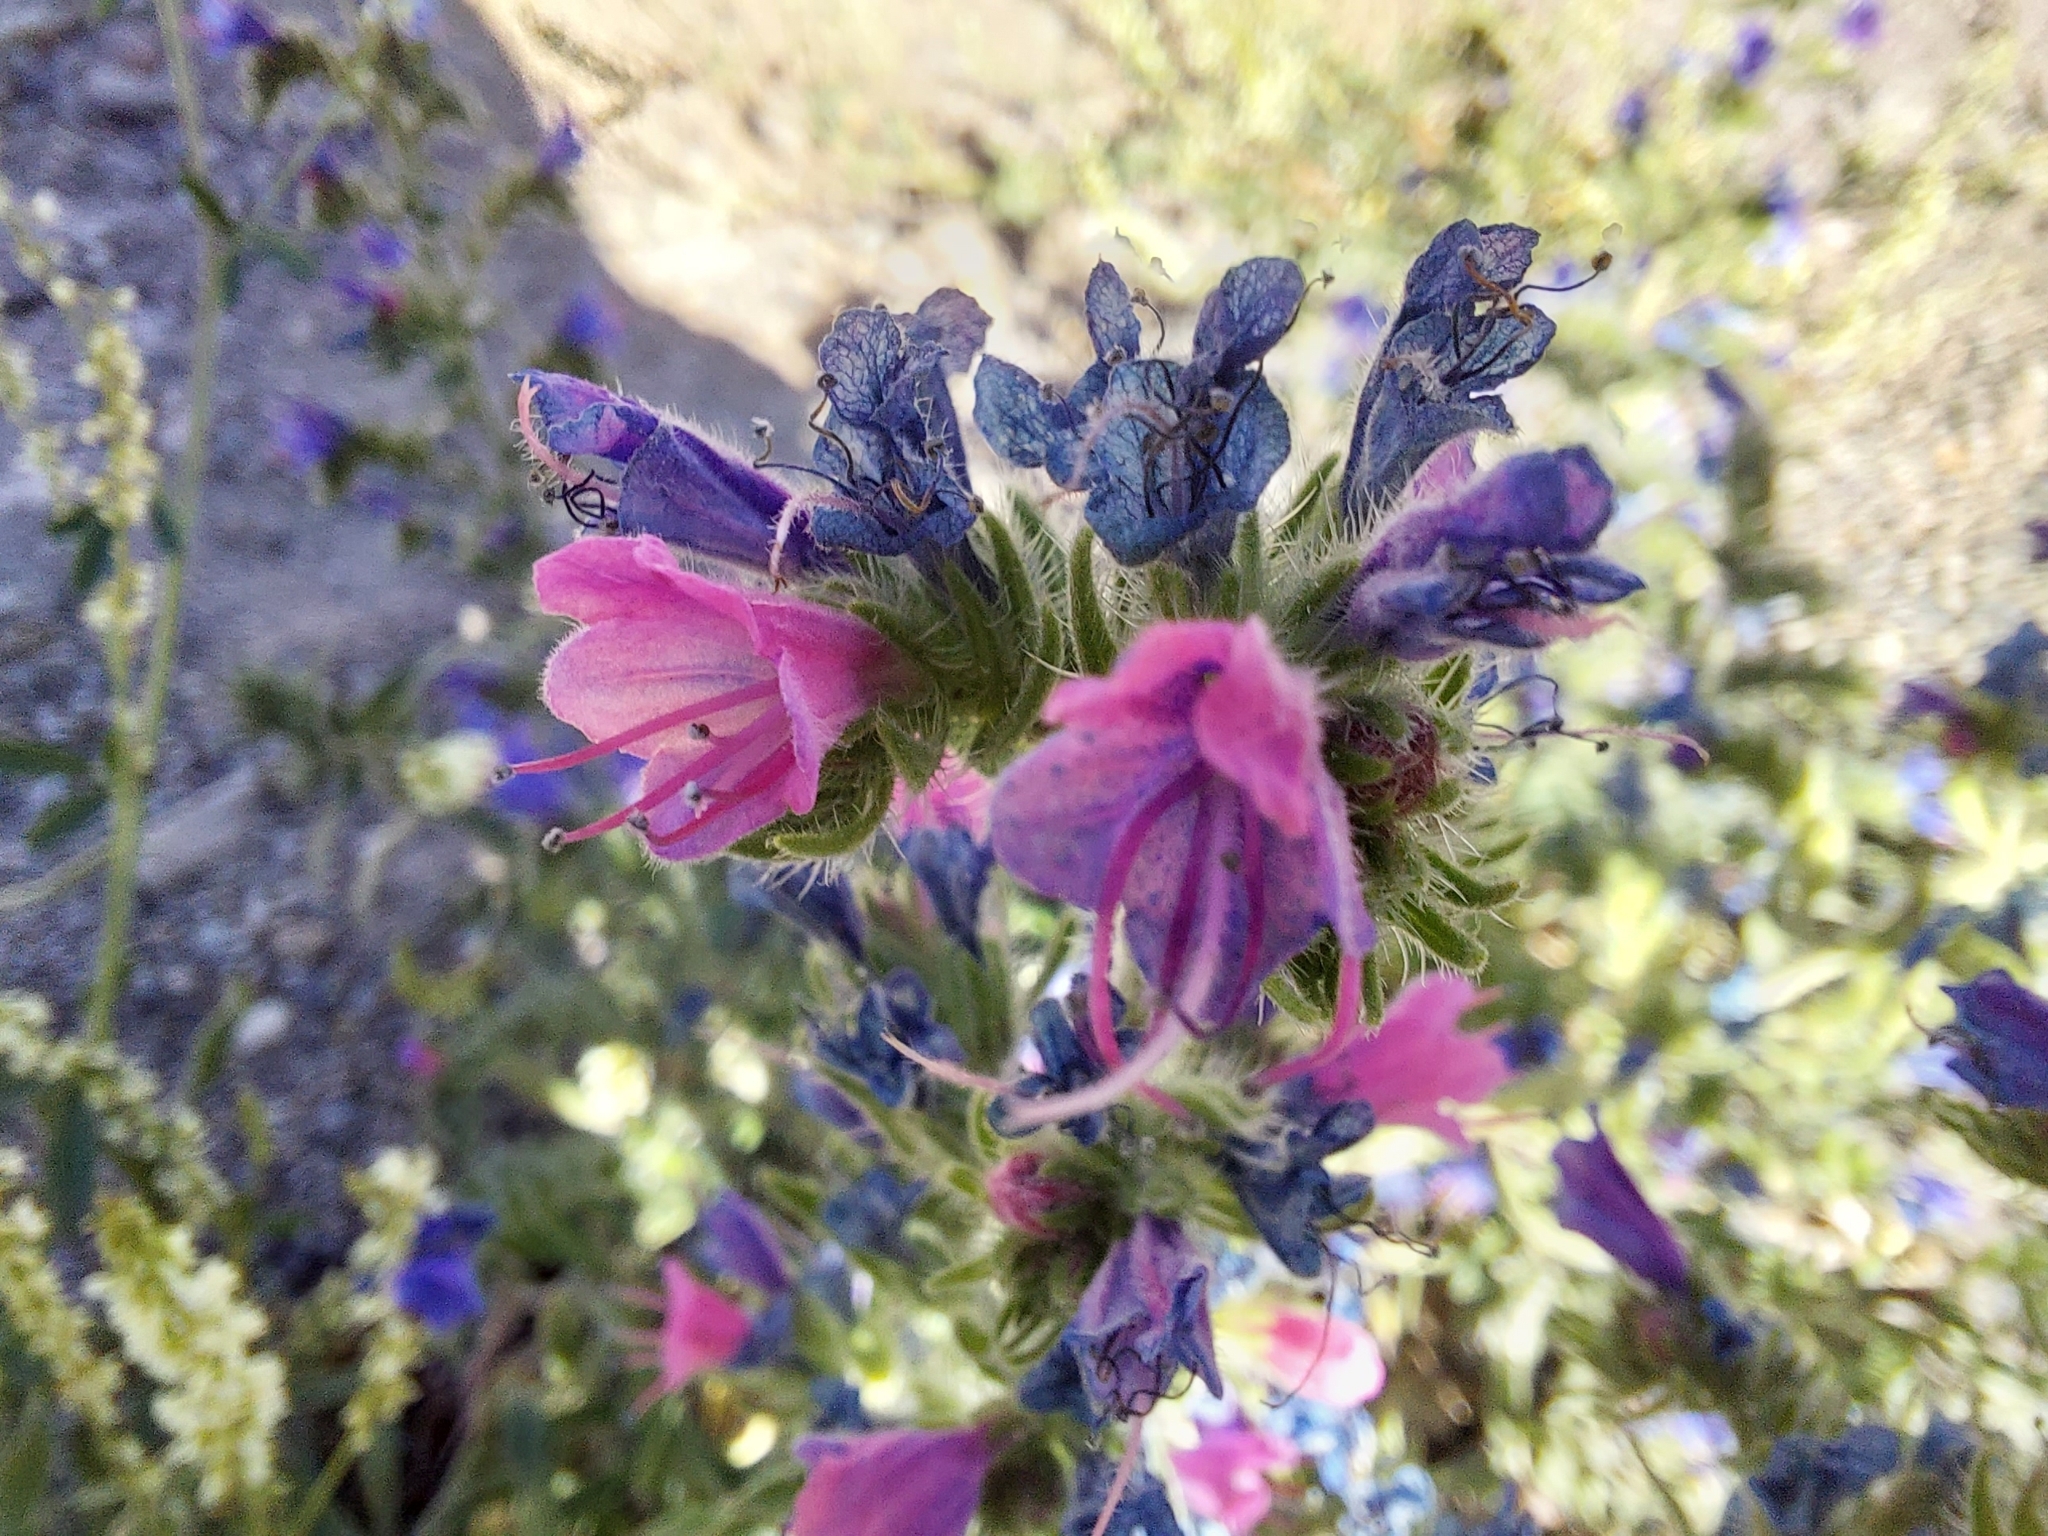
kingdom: Plantae
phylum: Tracheophyta
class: Magnoliopsida
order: Boraginales
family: Boraginaceae
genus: Echium
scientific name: Echium plantagineum
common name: Purple viper's-bugloss
